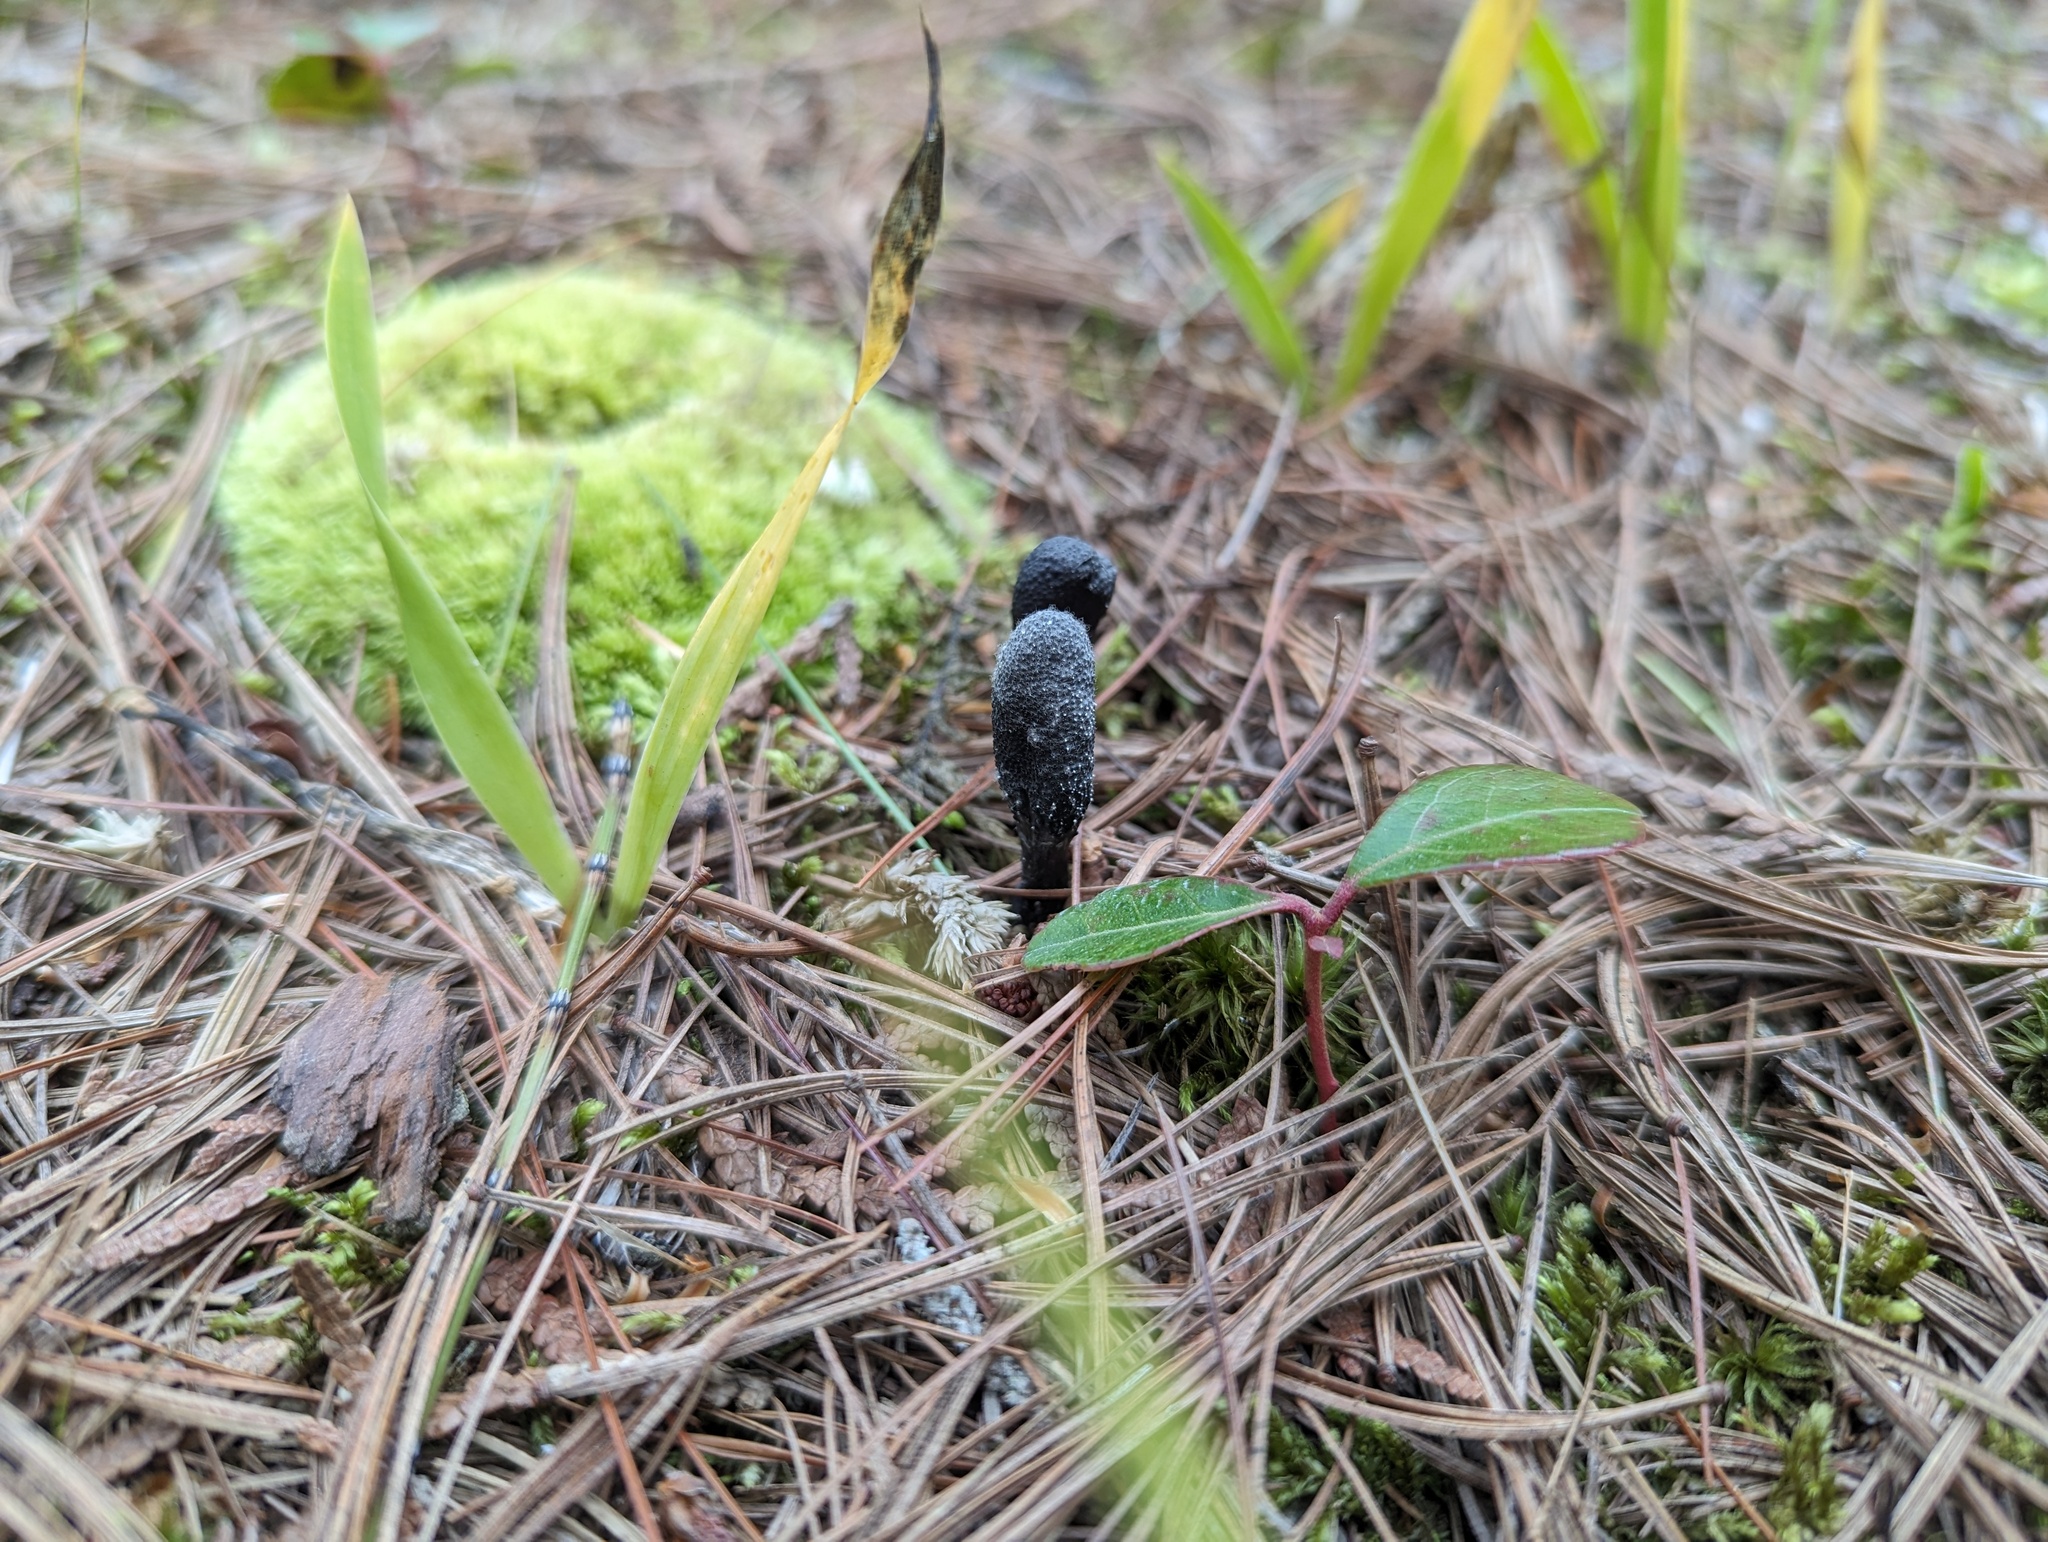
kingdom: Fungi
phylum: Ascomycota
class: Sordariomycetes
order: Hypocreales
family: Ophiocordycipitaceae
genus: Tolypocladium
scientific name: Tolypocladium ophioglossoides
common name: Snaketongue truffleclub
